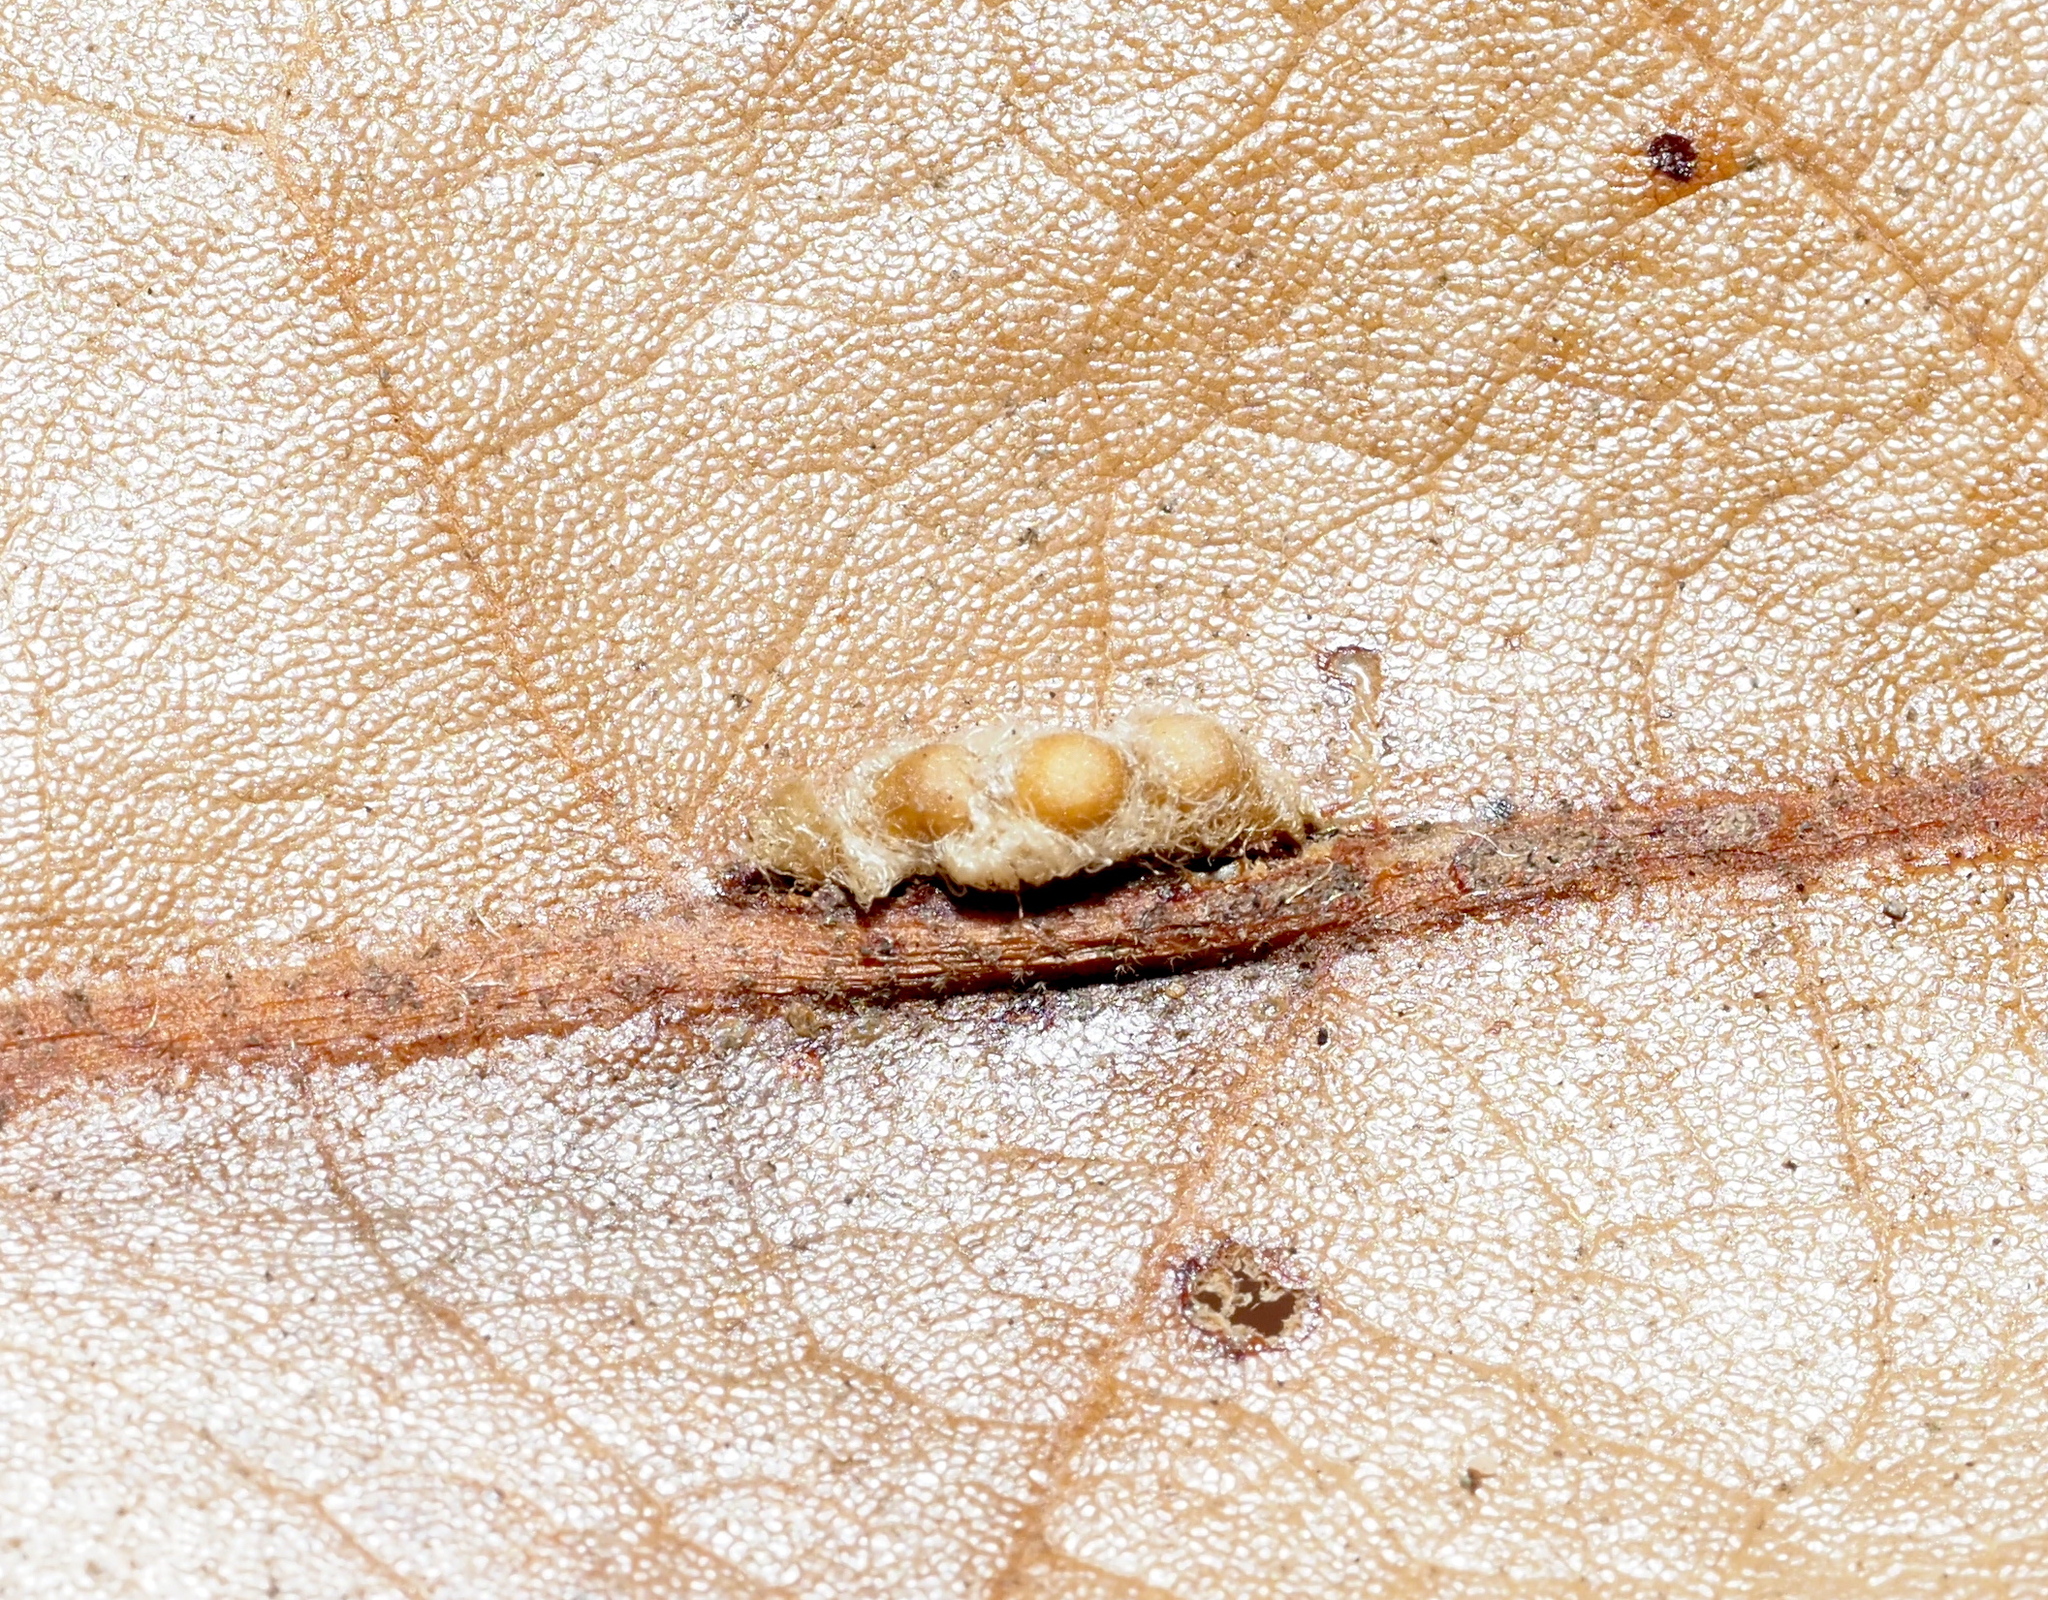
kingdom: Animalia
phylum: Arthropoda
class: Insecta
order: Hymenoptera
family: Cynipidae
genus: Andricus
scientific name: Andricus Druon pattoni
